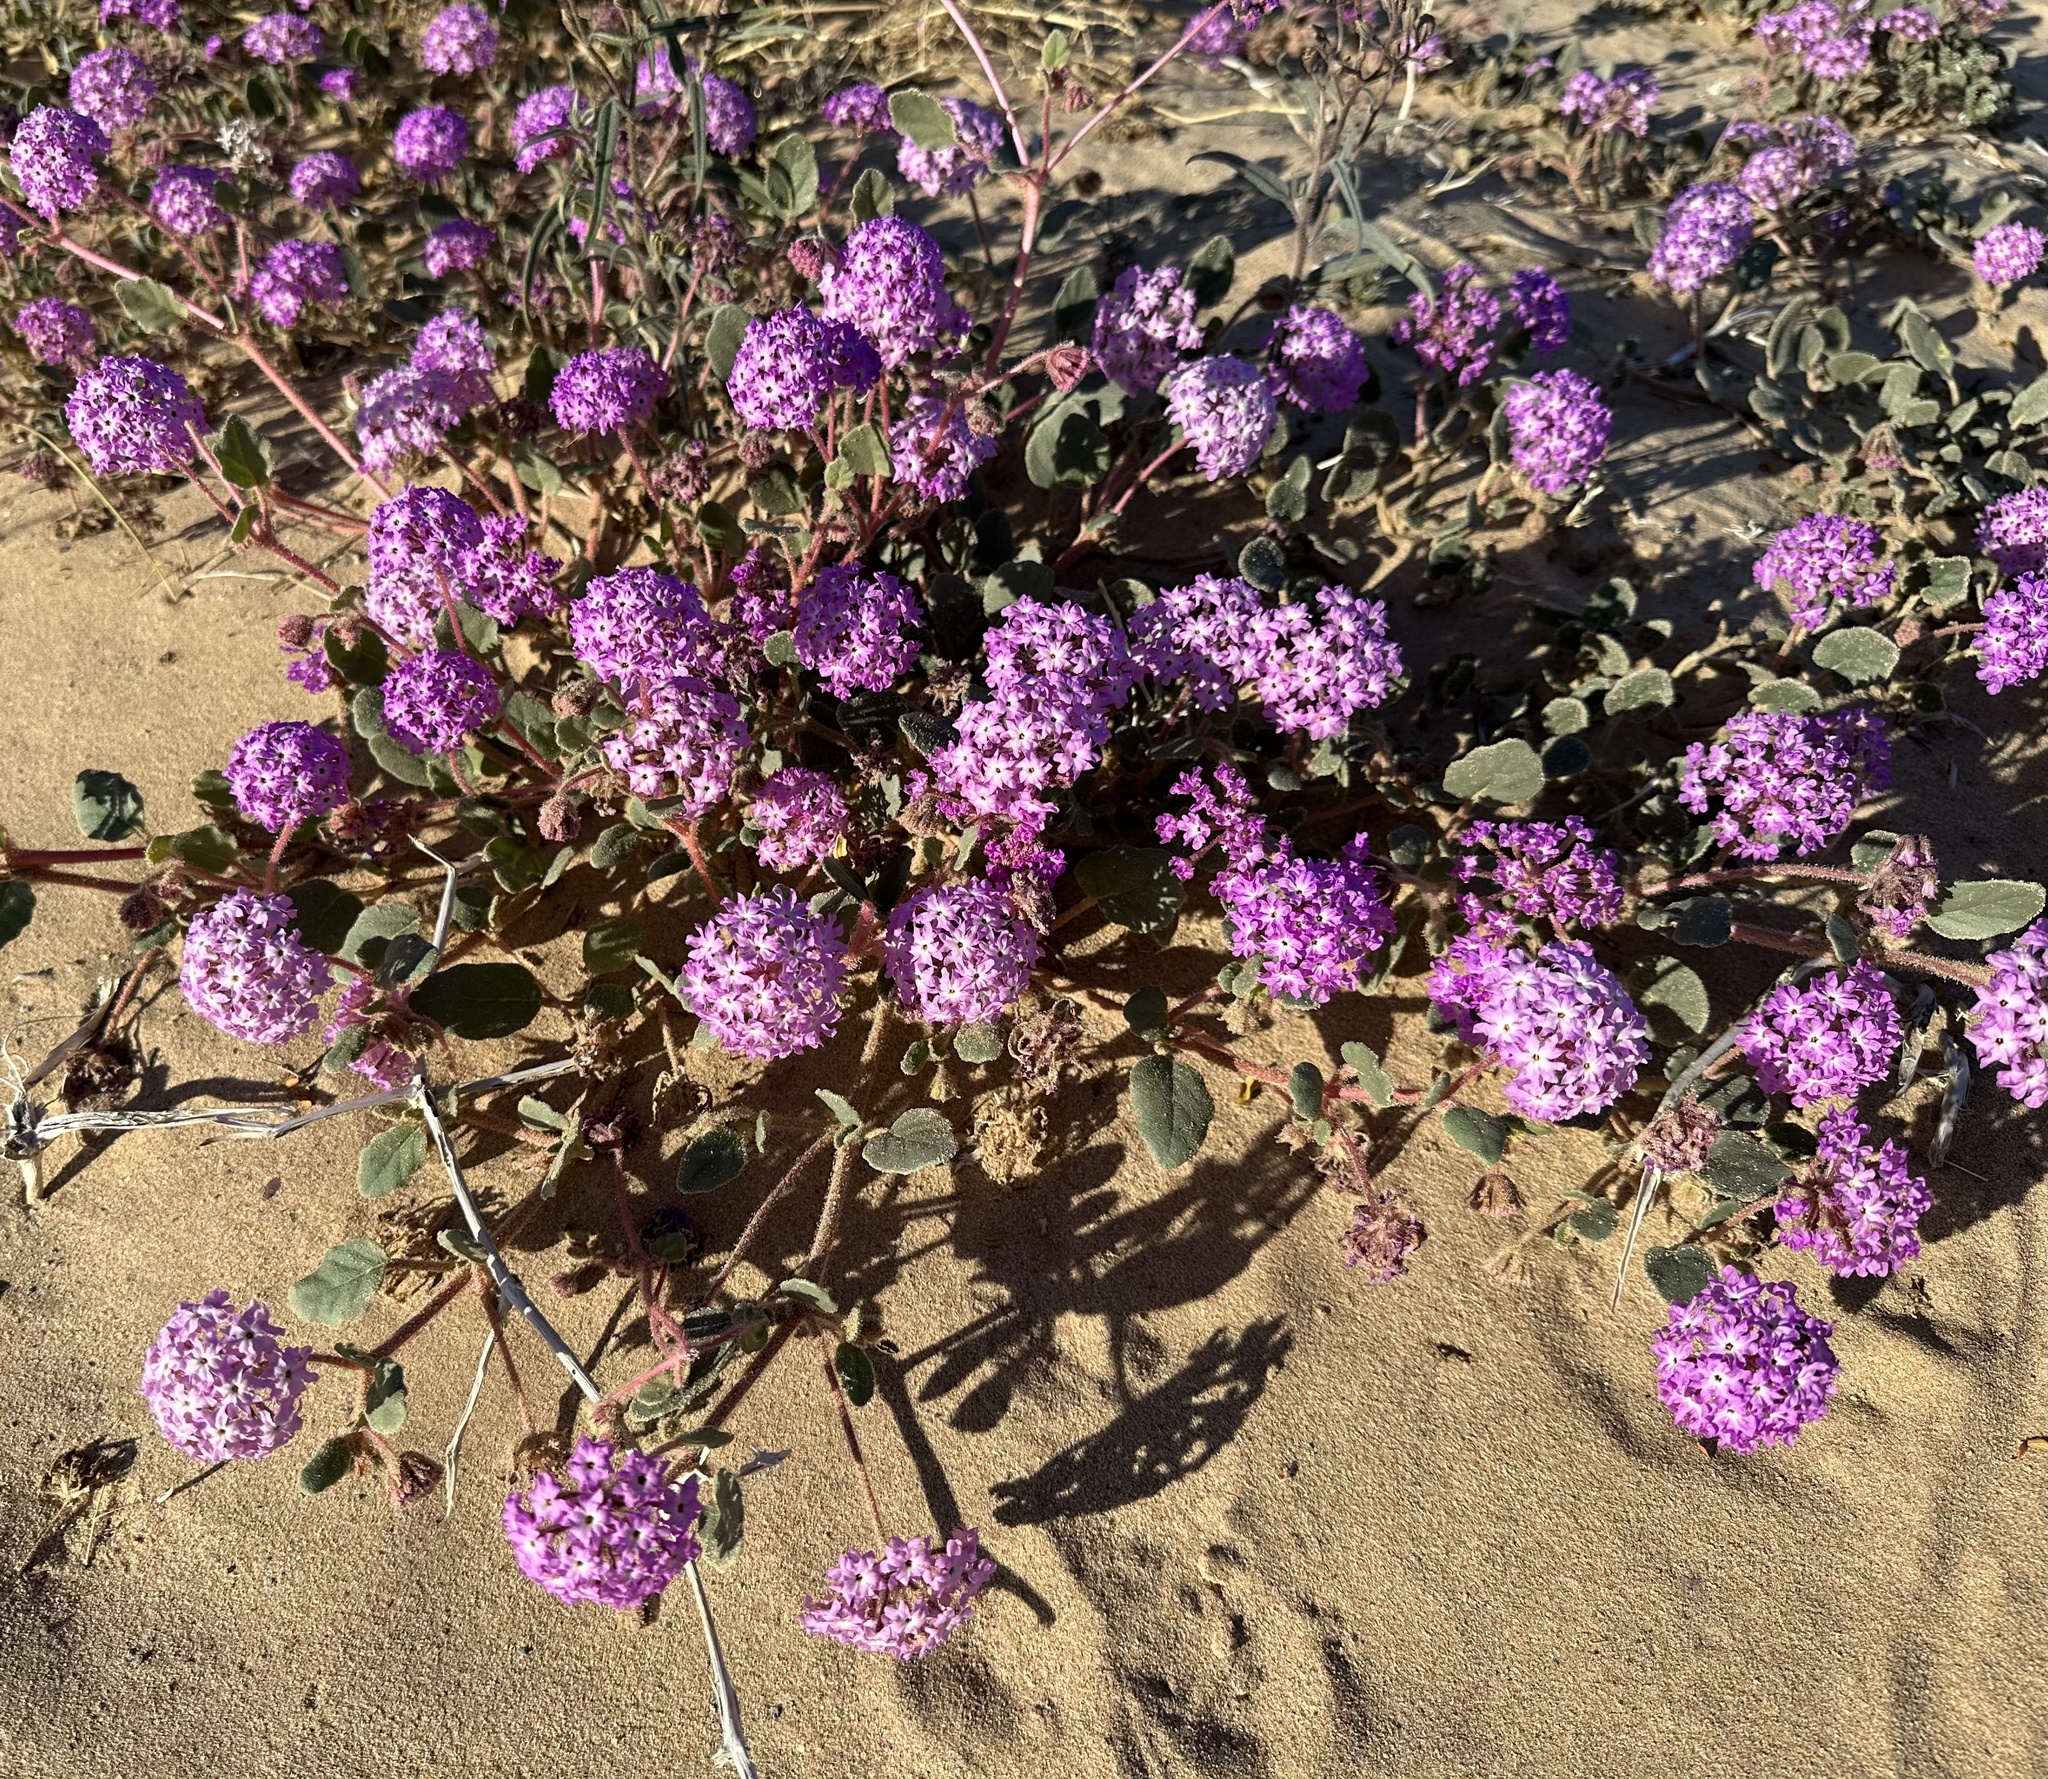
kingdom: Plantae
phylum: Tracheophyta
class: Magnoliopsida
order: Caryophyllales
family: Nyctaginaceae
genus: Abronia
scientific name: Abronia villosa
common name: Desert sand-verbena
